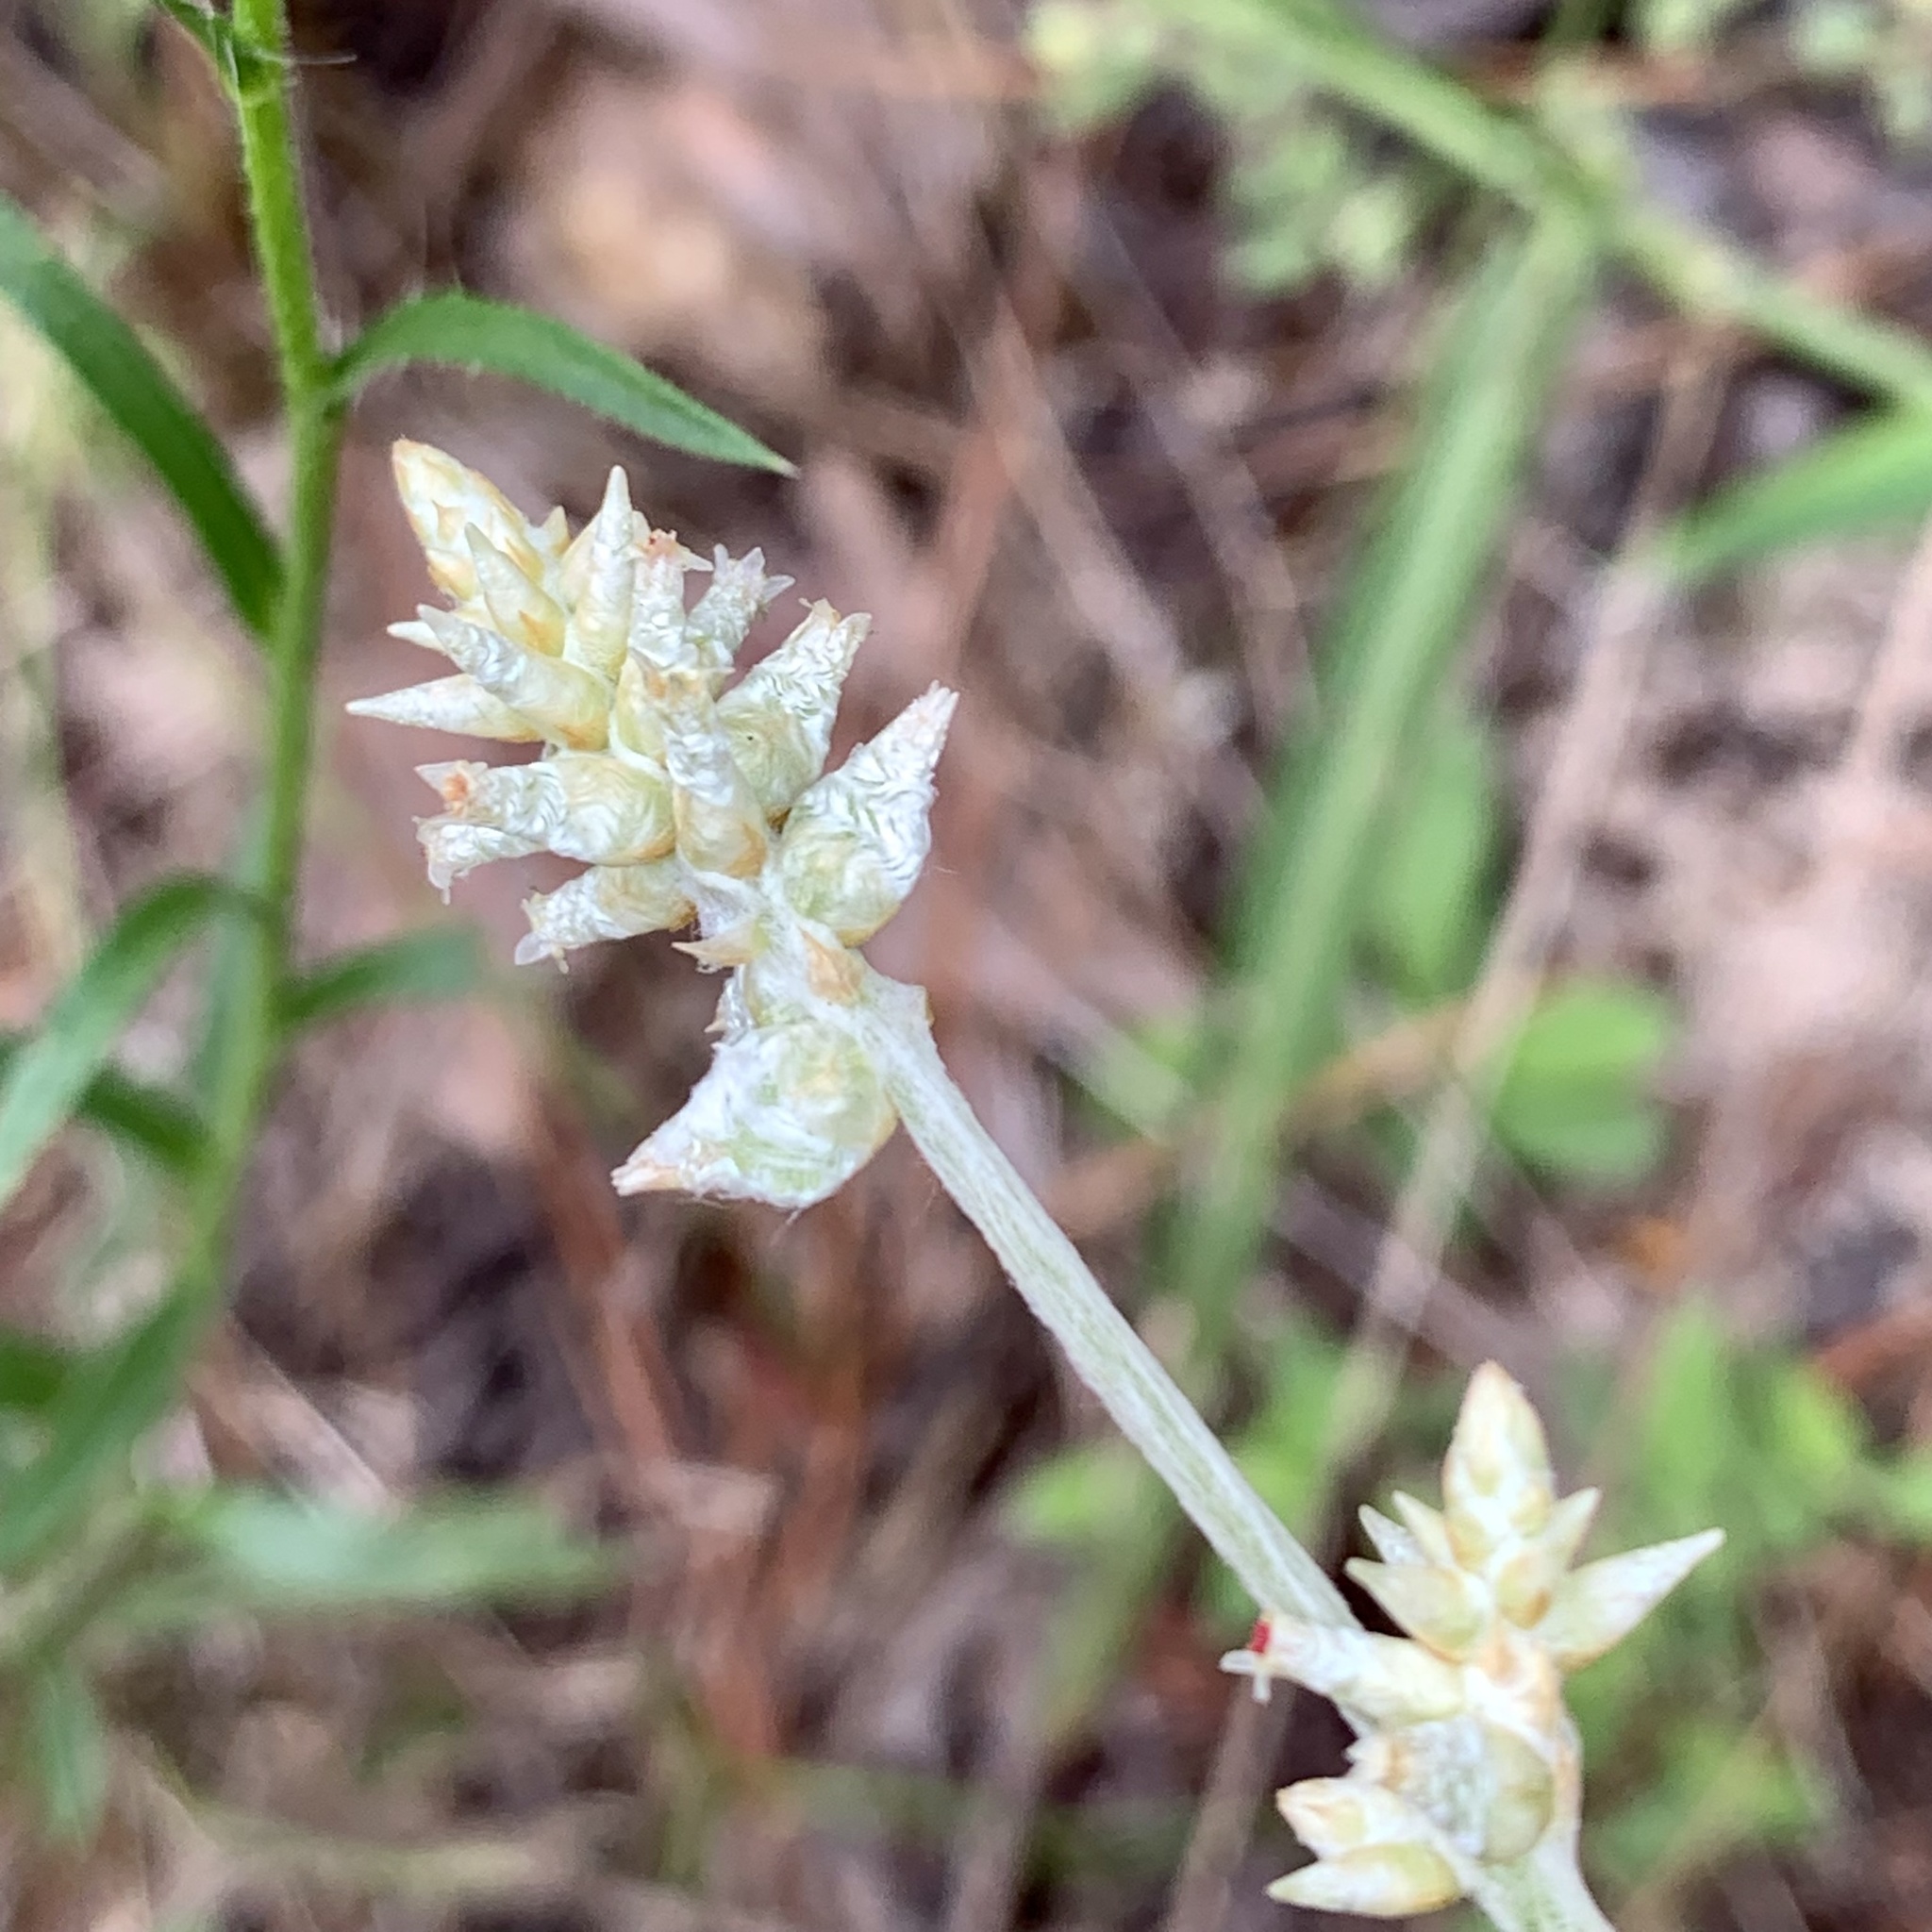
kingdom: Plantae
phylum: Tracheophyta
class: Magnoliopsida
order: Caryophyllales
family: Amaranthaceae
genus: Froelichia
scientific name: Froelichia floridana
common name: Florida snake-cotton
